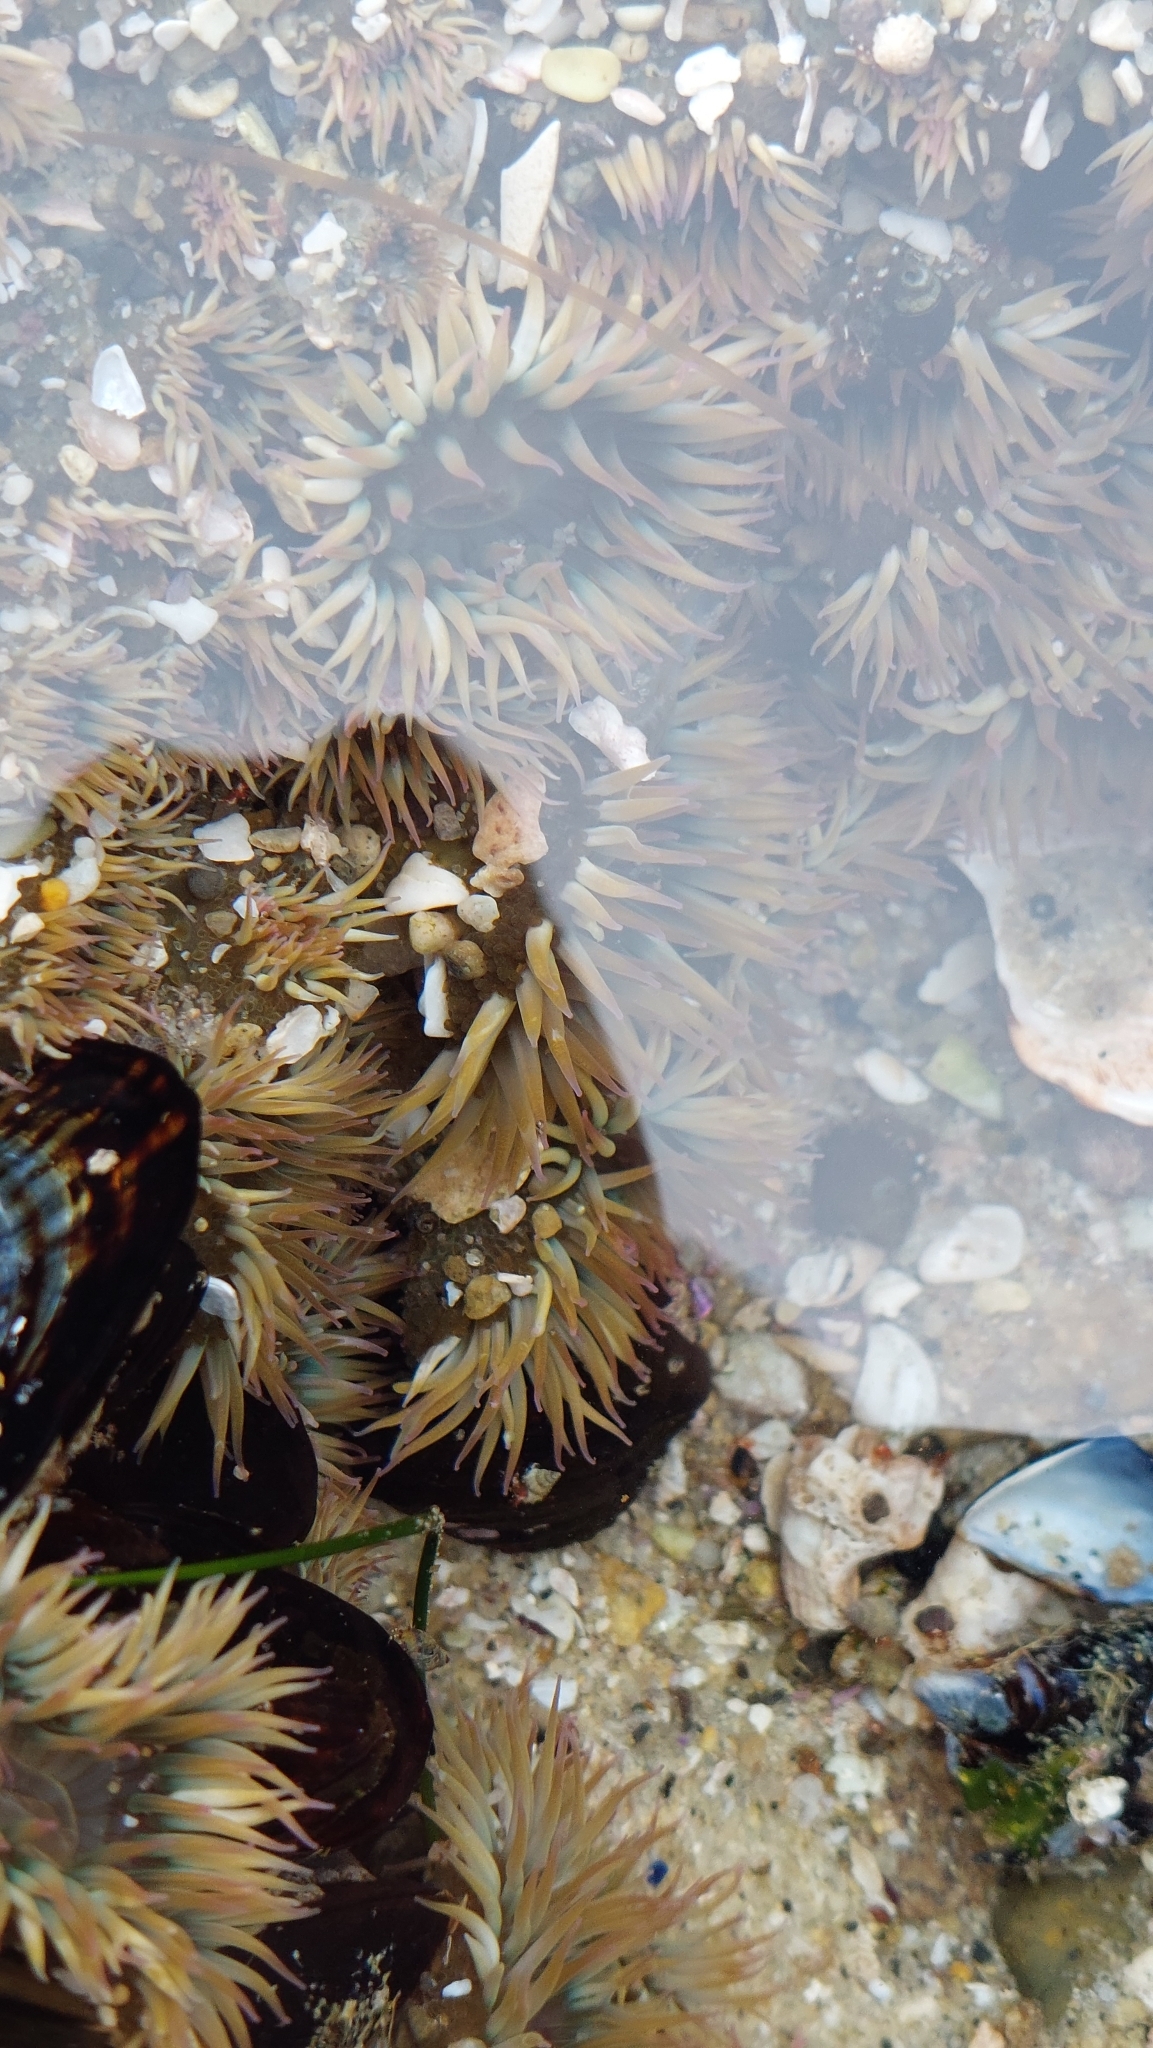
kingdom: Animalia
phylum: Cnidaria
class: Anthozoa
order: Actiniaria
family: Actiniidae
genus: Anthopleura
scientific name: Anthopleura elegantissima
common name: Clonal anemone
